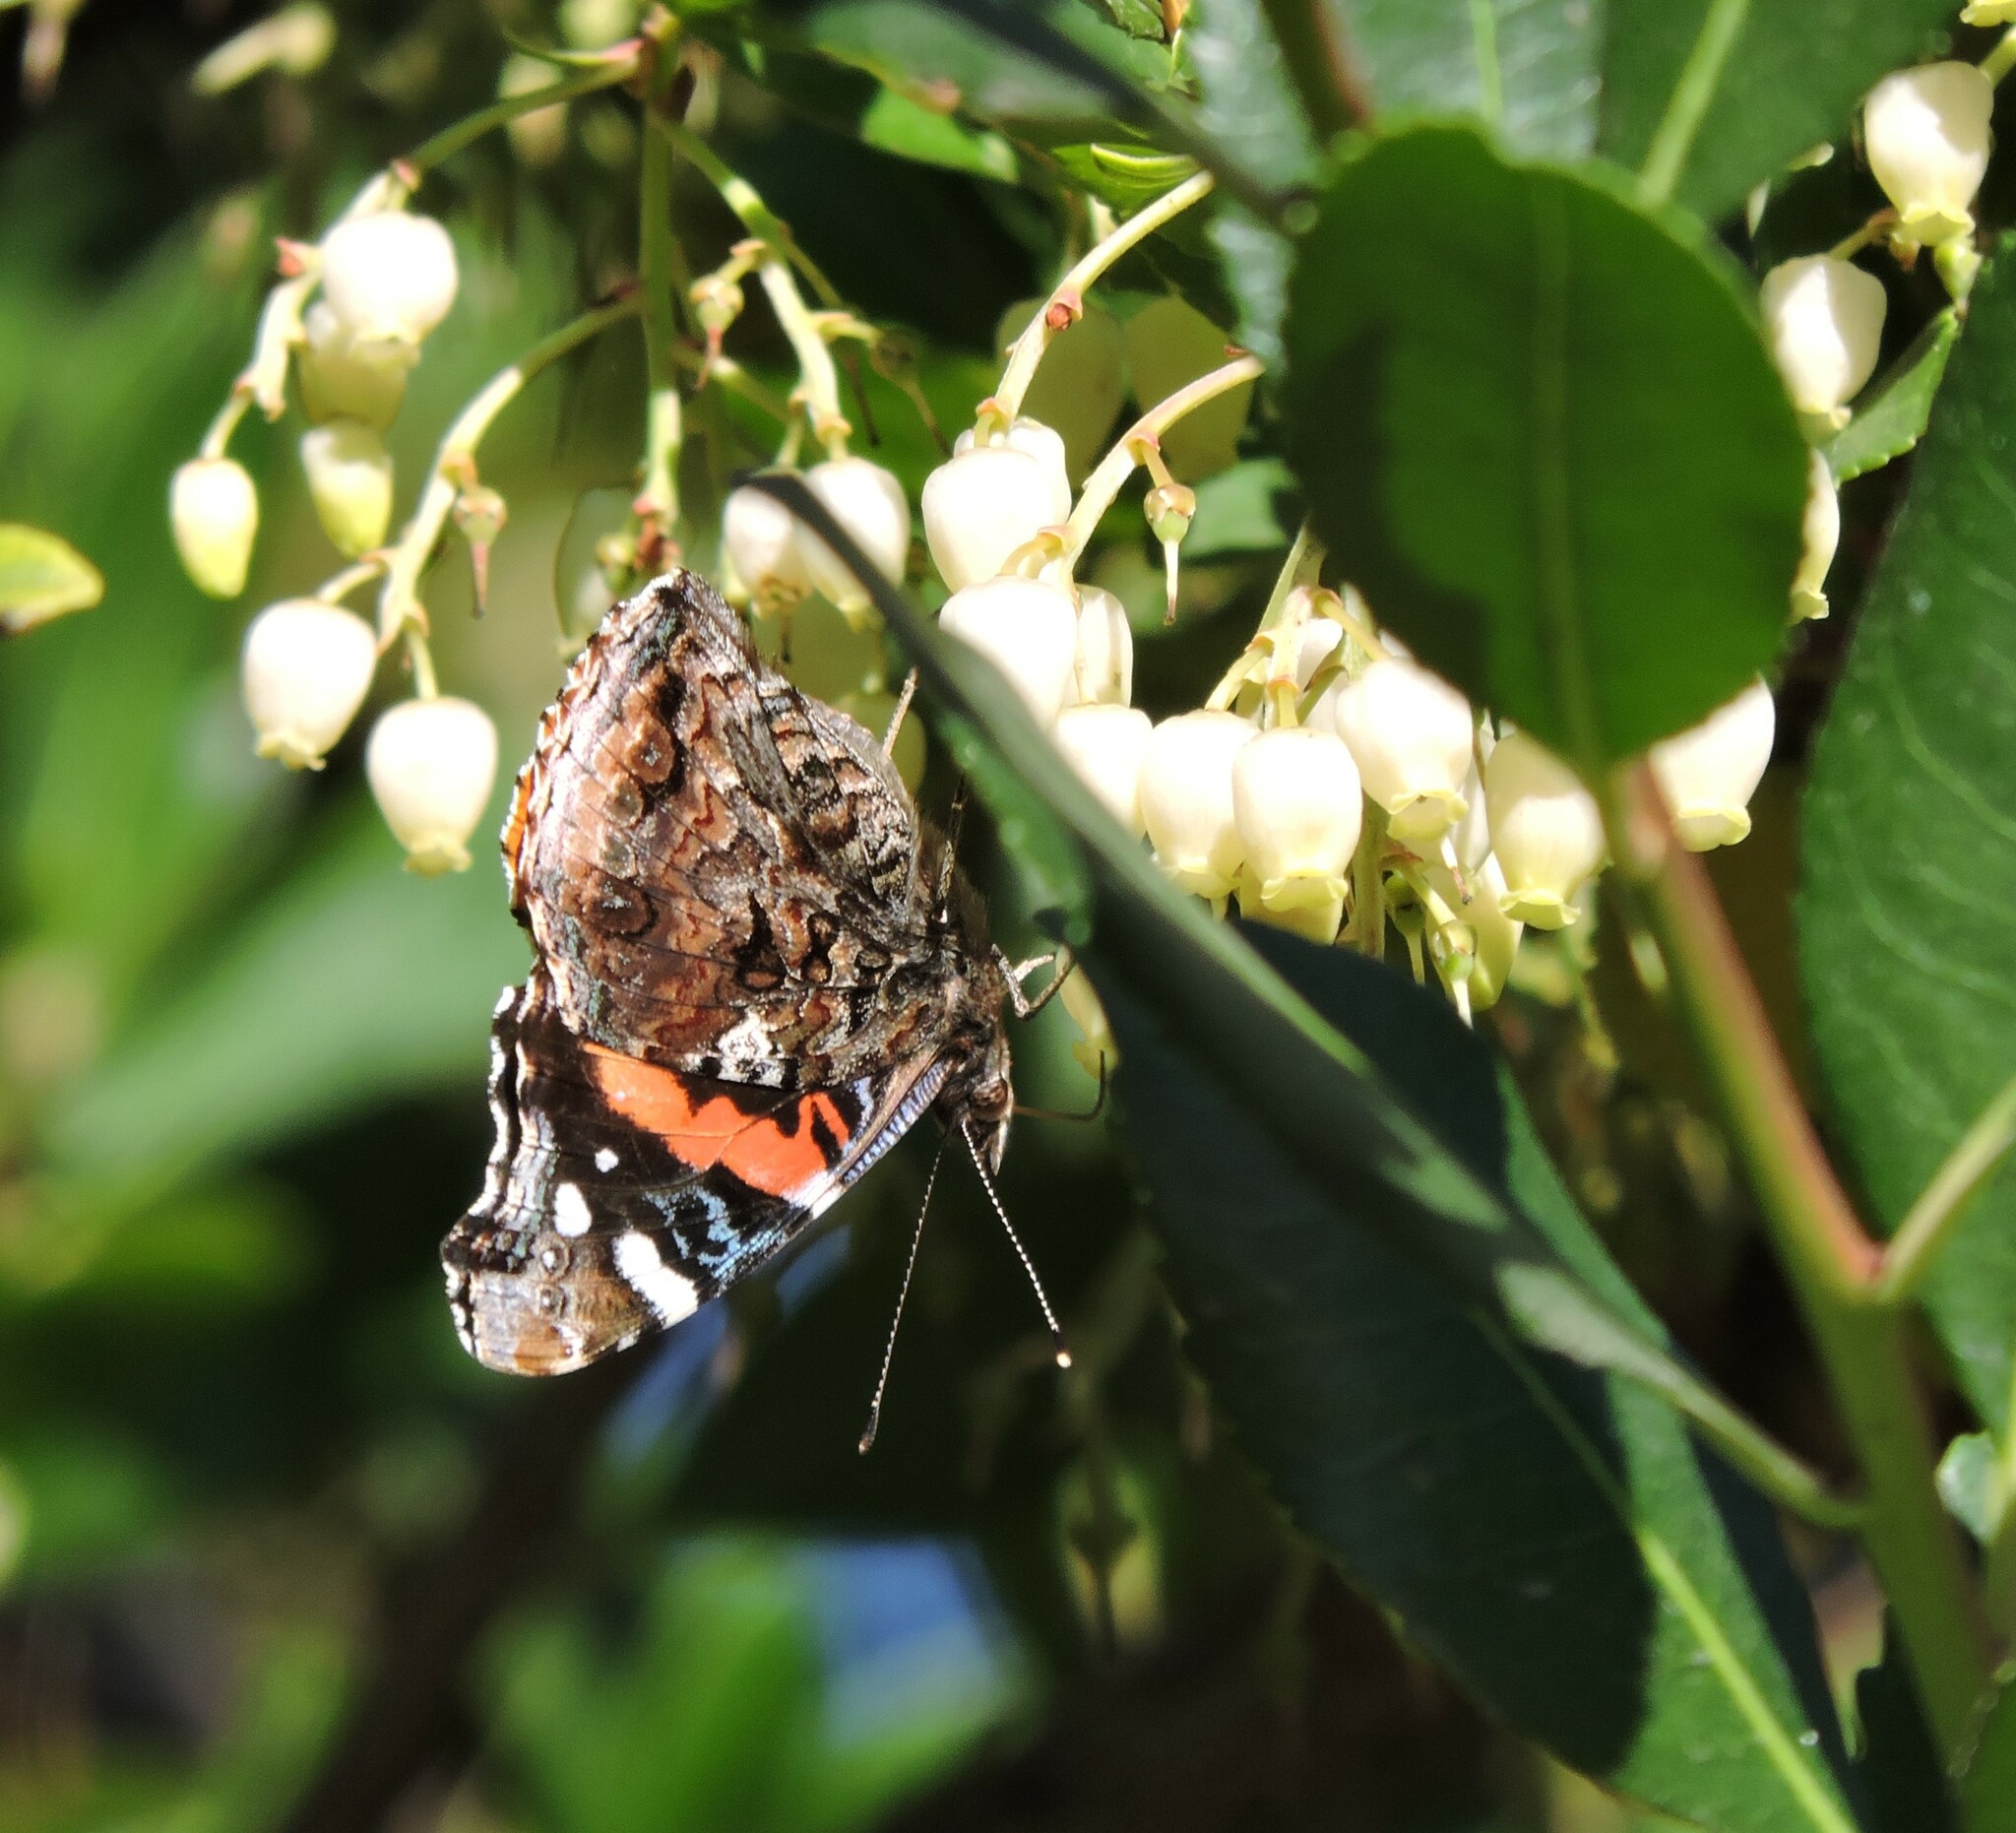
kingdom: Animalia
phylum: Arthropoda
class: Insecta
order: Lepidoptera
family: Nymphalidae
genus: Vanessa
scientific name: Vanessa atalanta
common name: Red admiral
